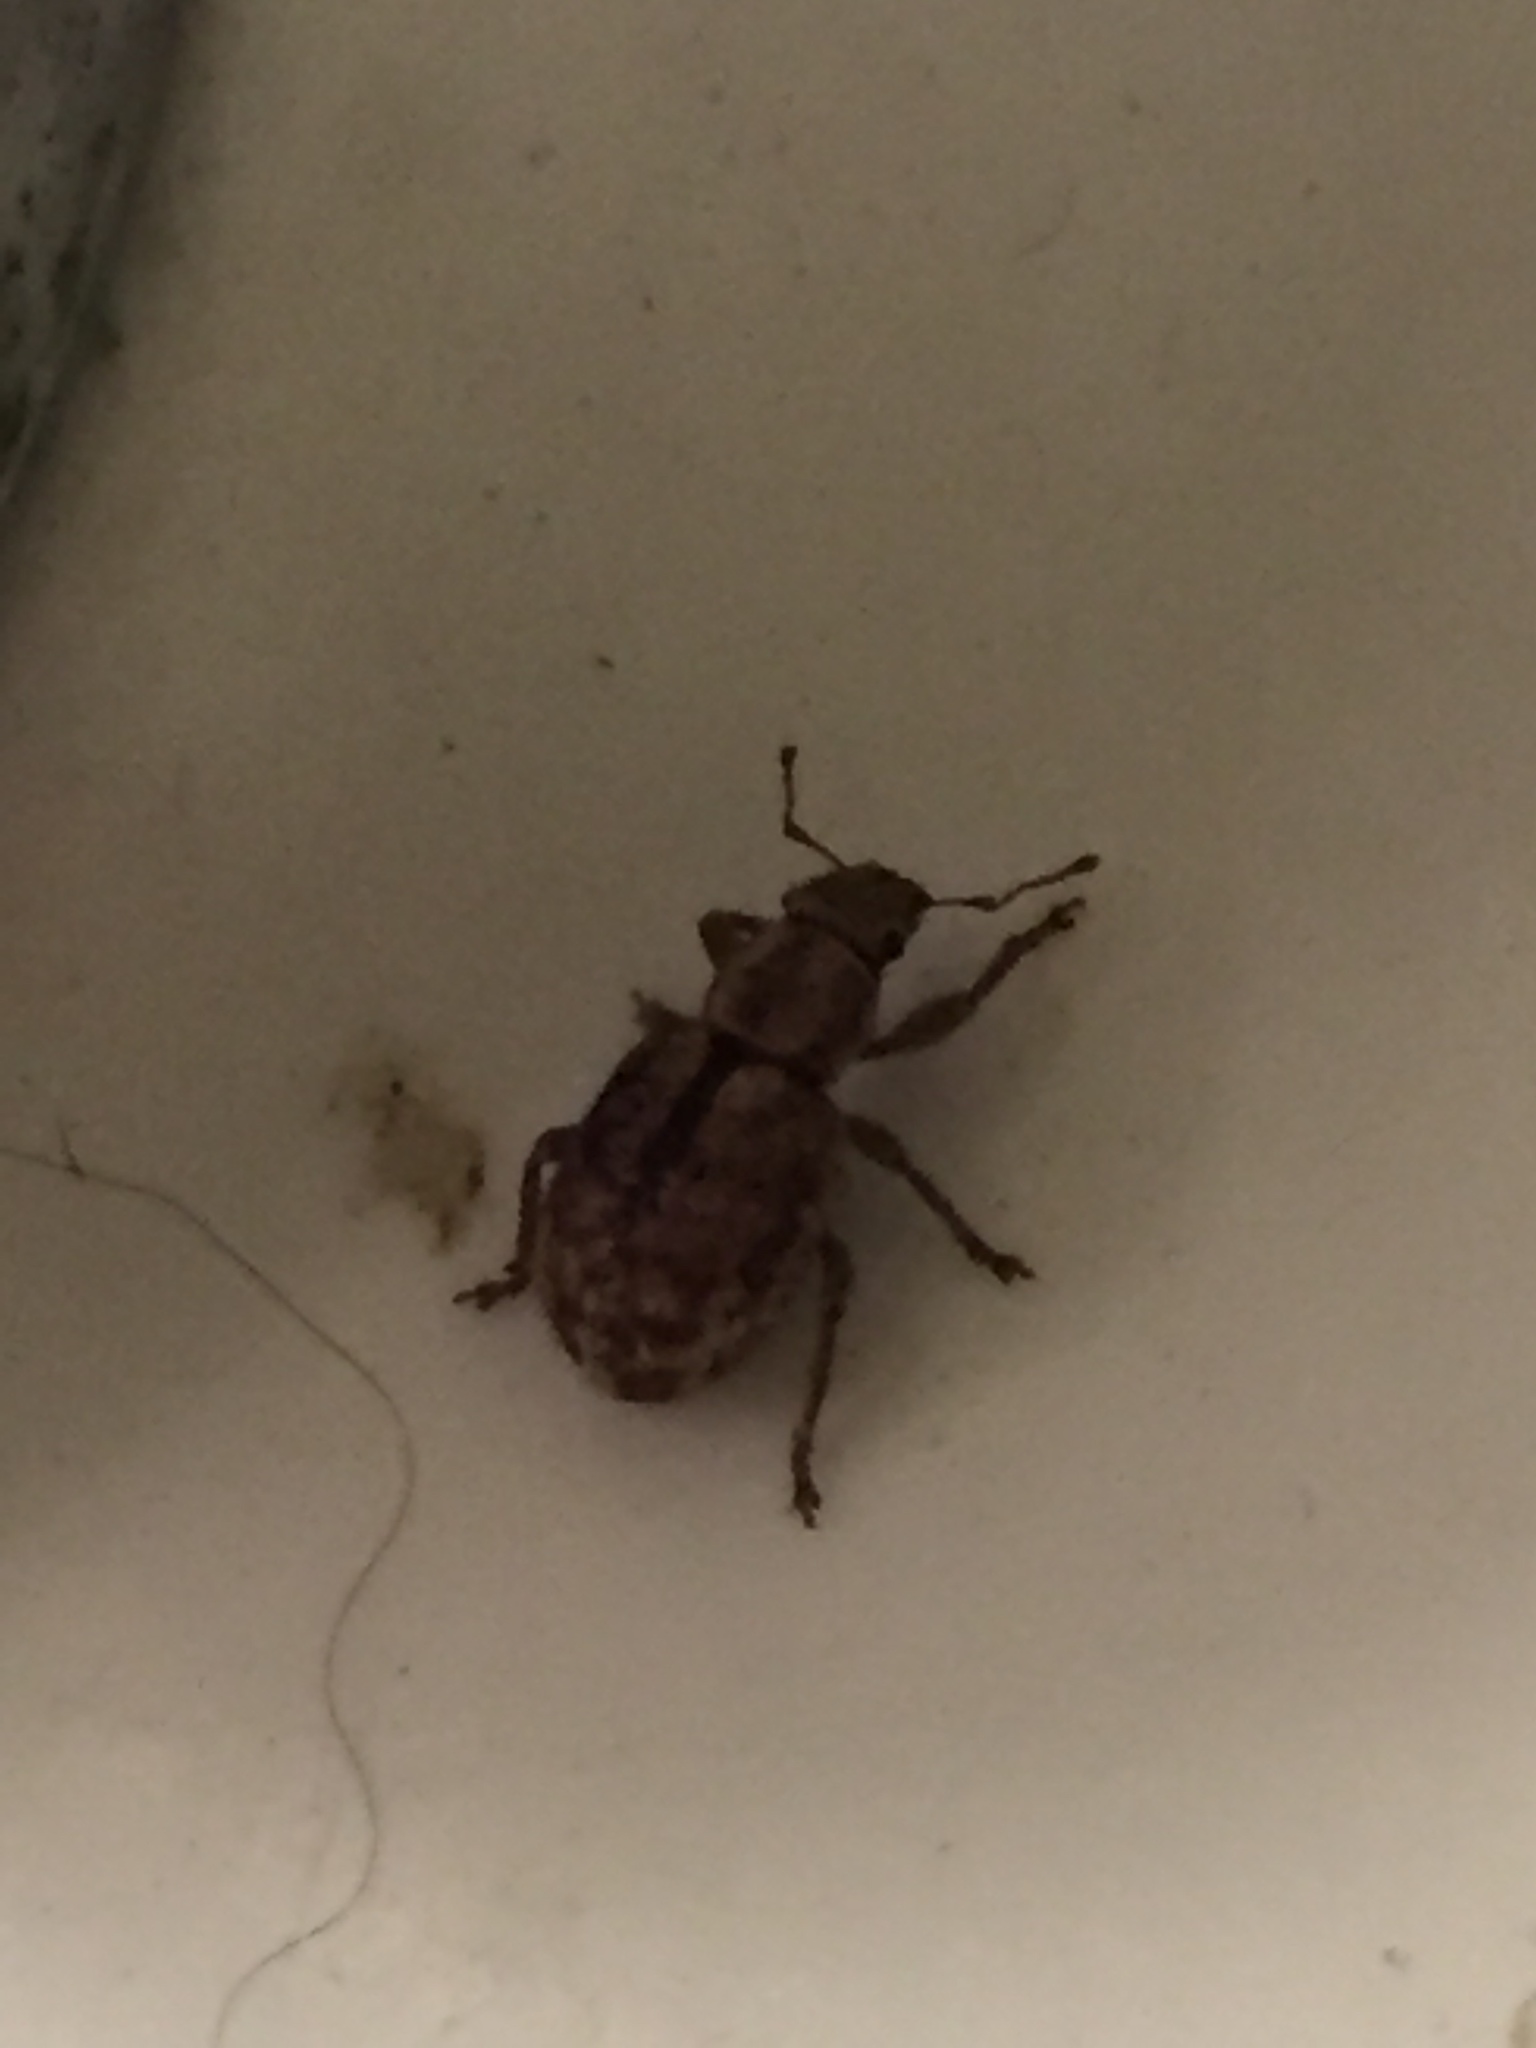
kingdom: Animalia
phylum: Arthropoda
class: Insecta
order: Coleoptera
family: Curculionidae
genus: Strophosoma
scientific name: Strophosoma melanogrammum
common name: Weevil
